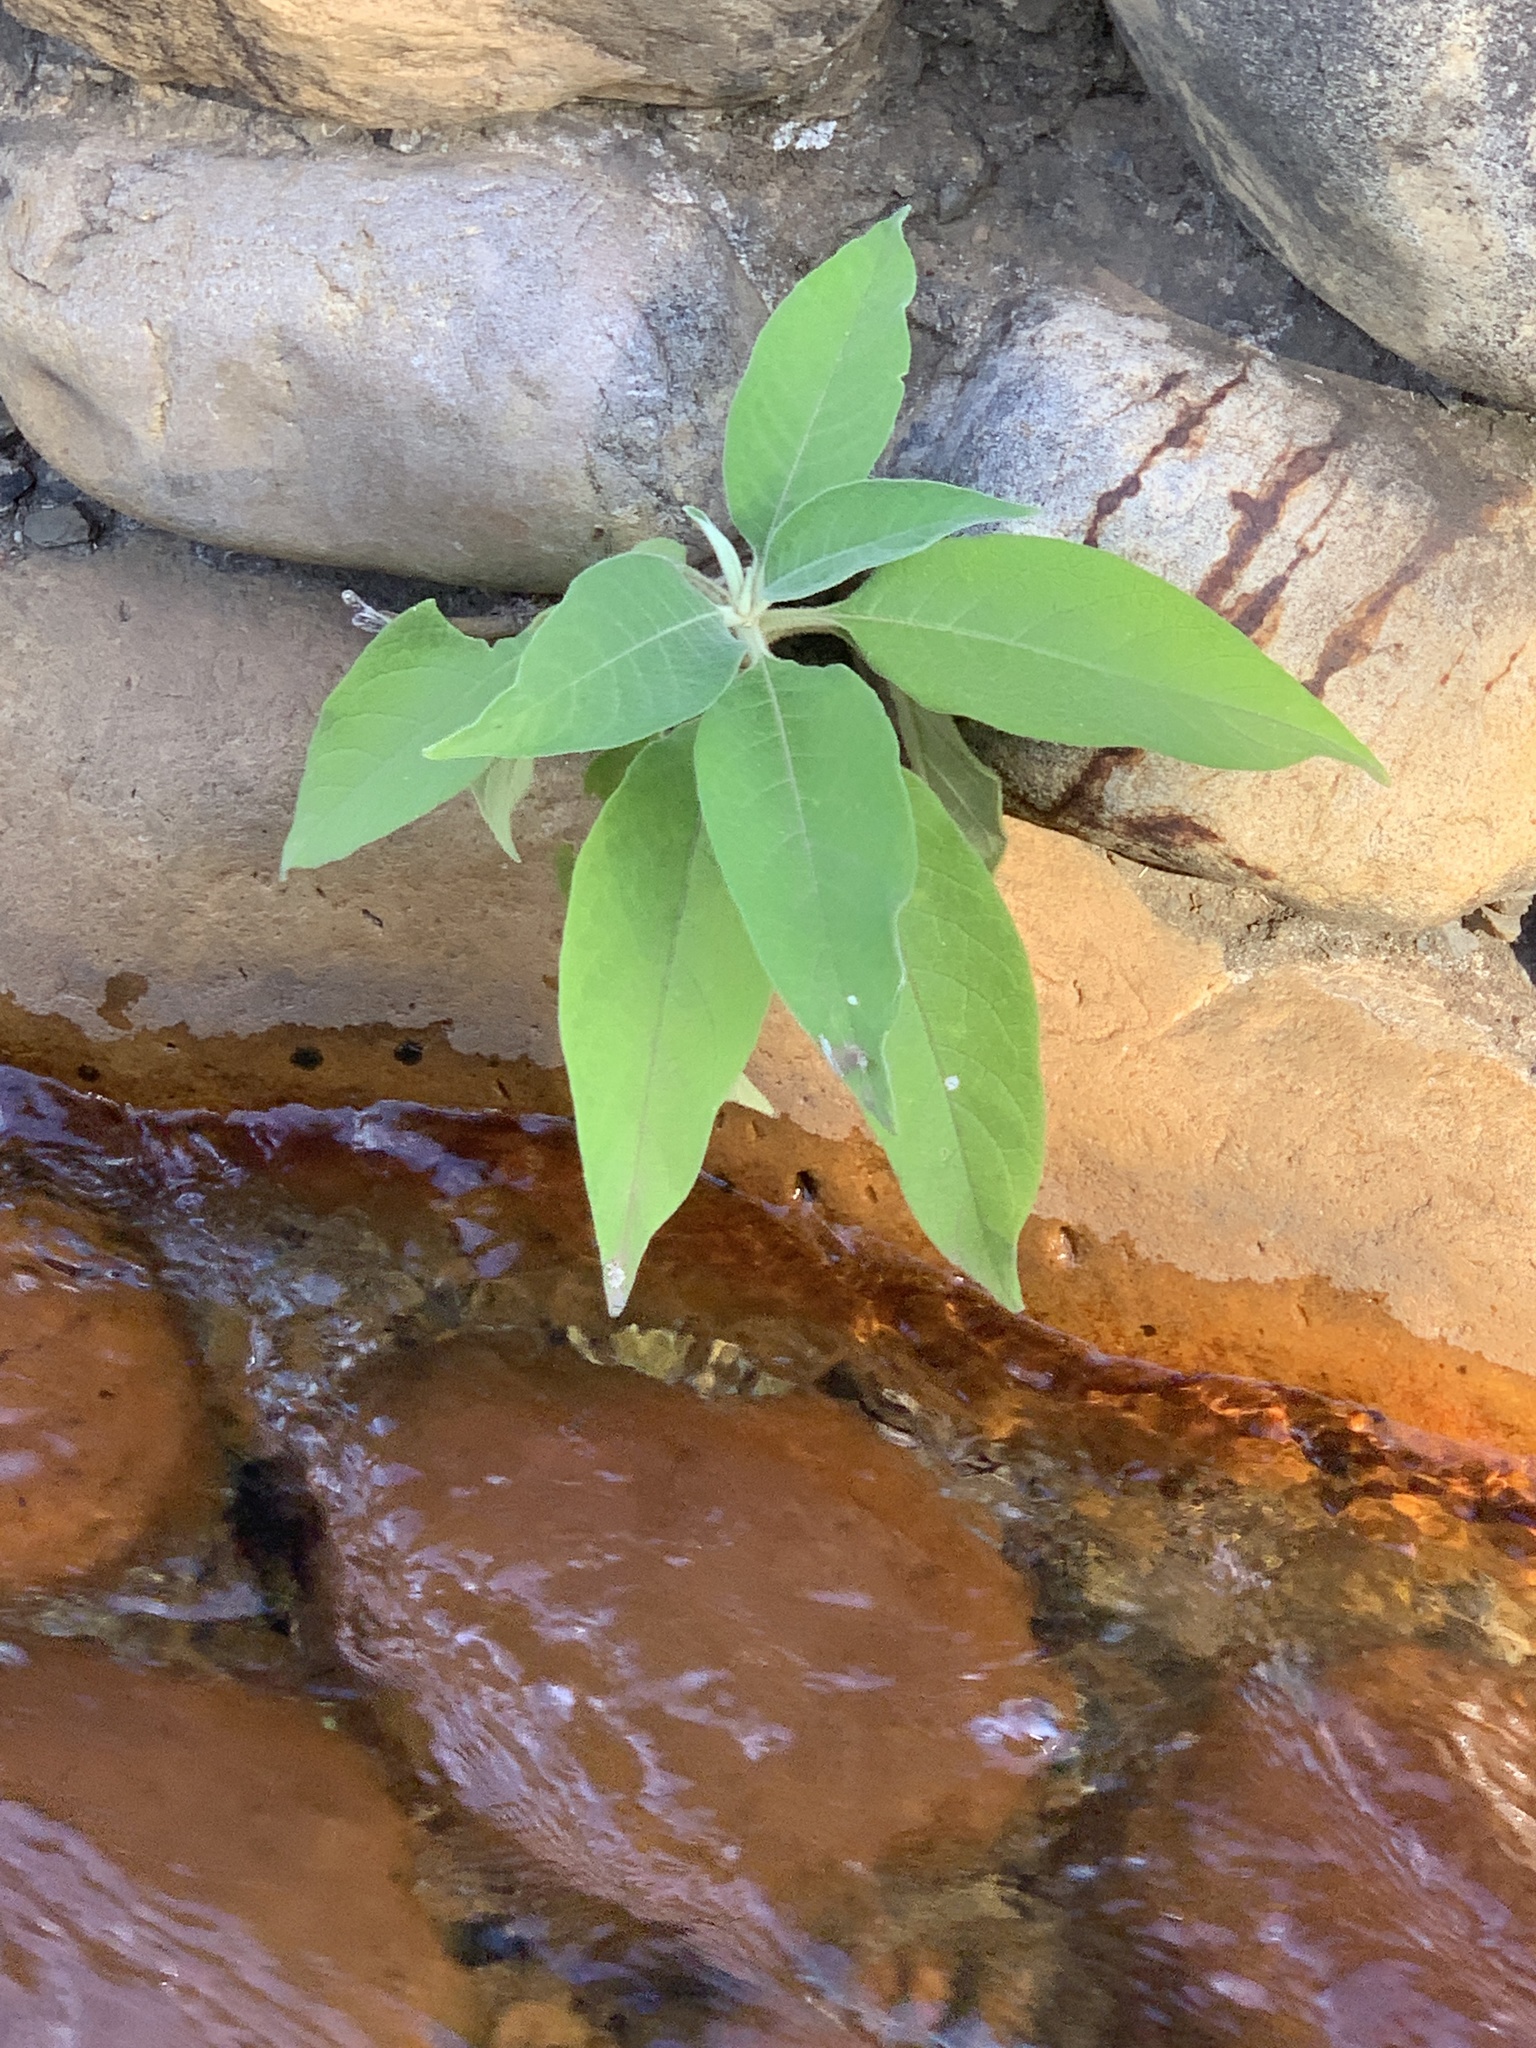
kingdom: Plantae
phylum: Tracheophyta
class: Magnoliopsida
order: Solanales
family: Solanaceae
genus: Solanum
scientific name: Solanum mauritianum
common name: Earleaf nightshade
